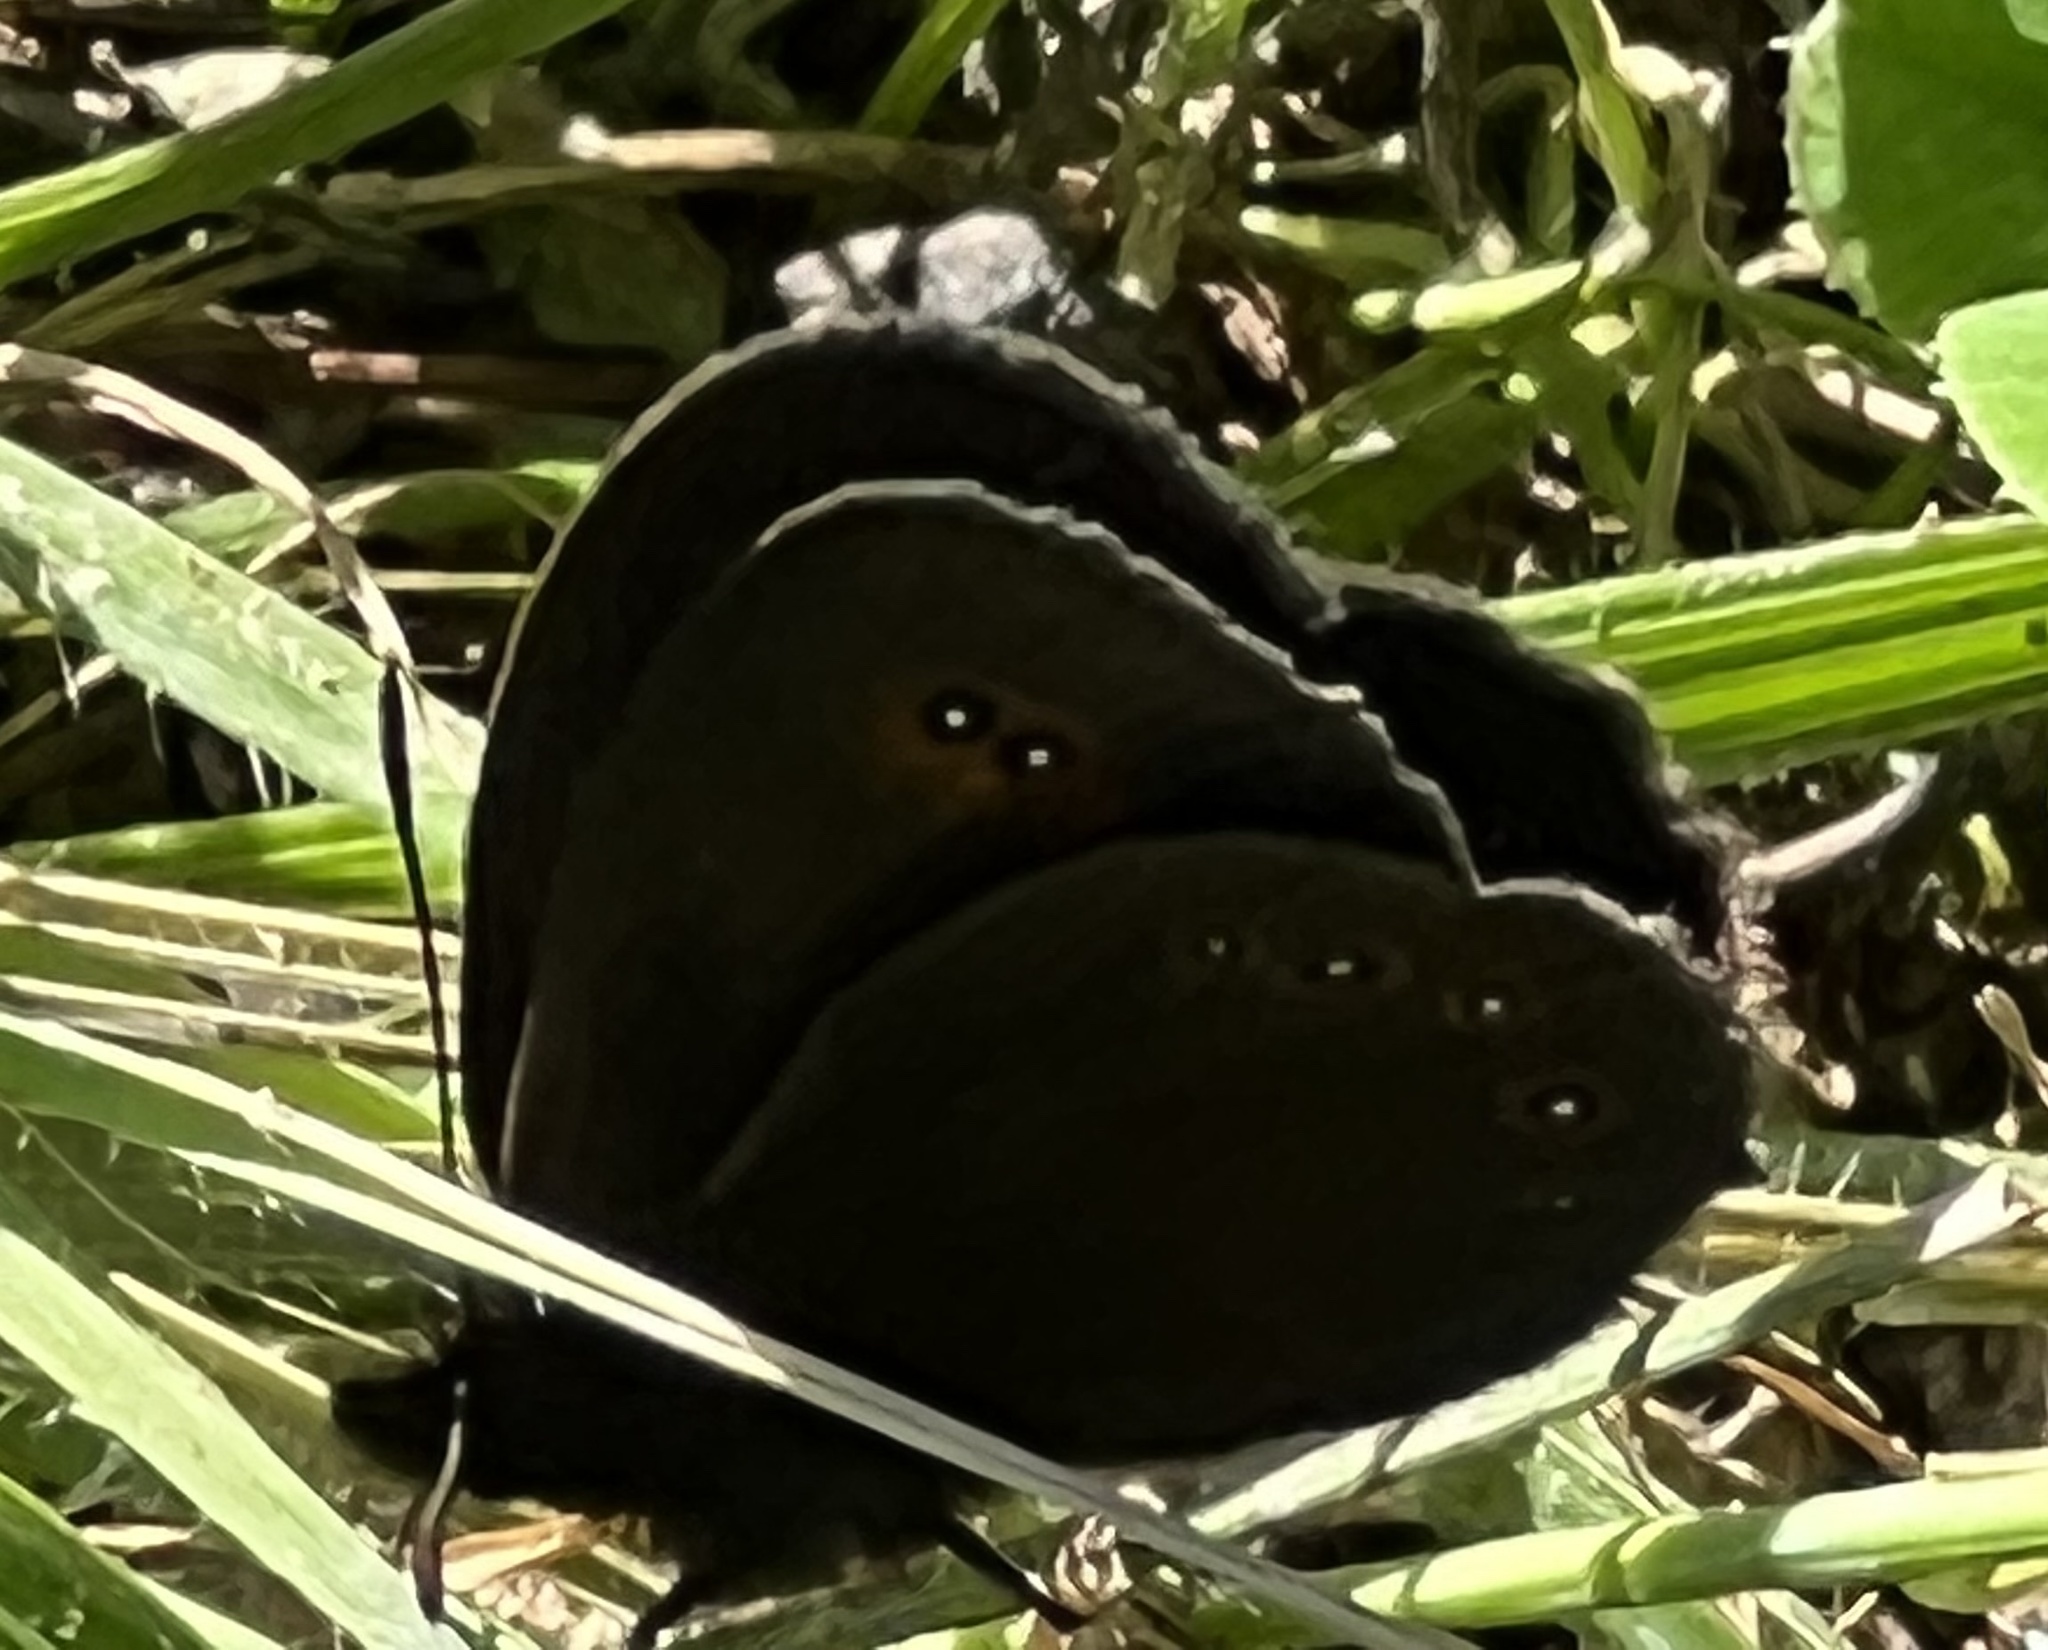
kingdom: Animalia
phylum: Arthropoda
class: Insecta
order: Lepidoptera
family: Nymphalidae
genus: Erebia
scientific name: Erebia oeme
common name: Bright-eyed ringlet
